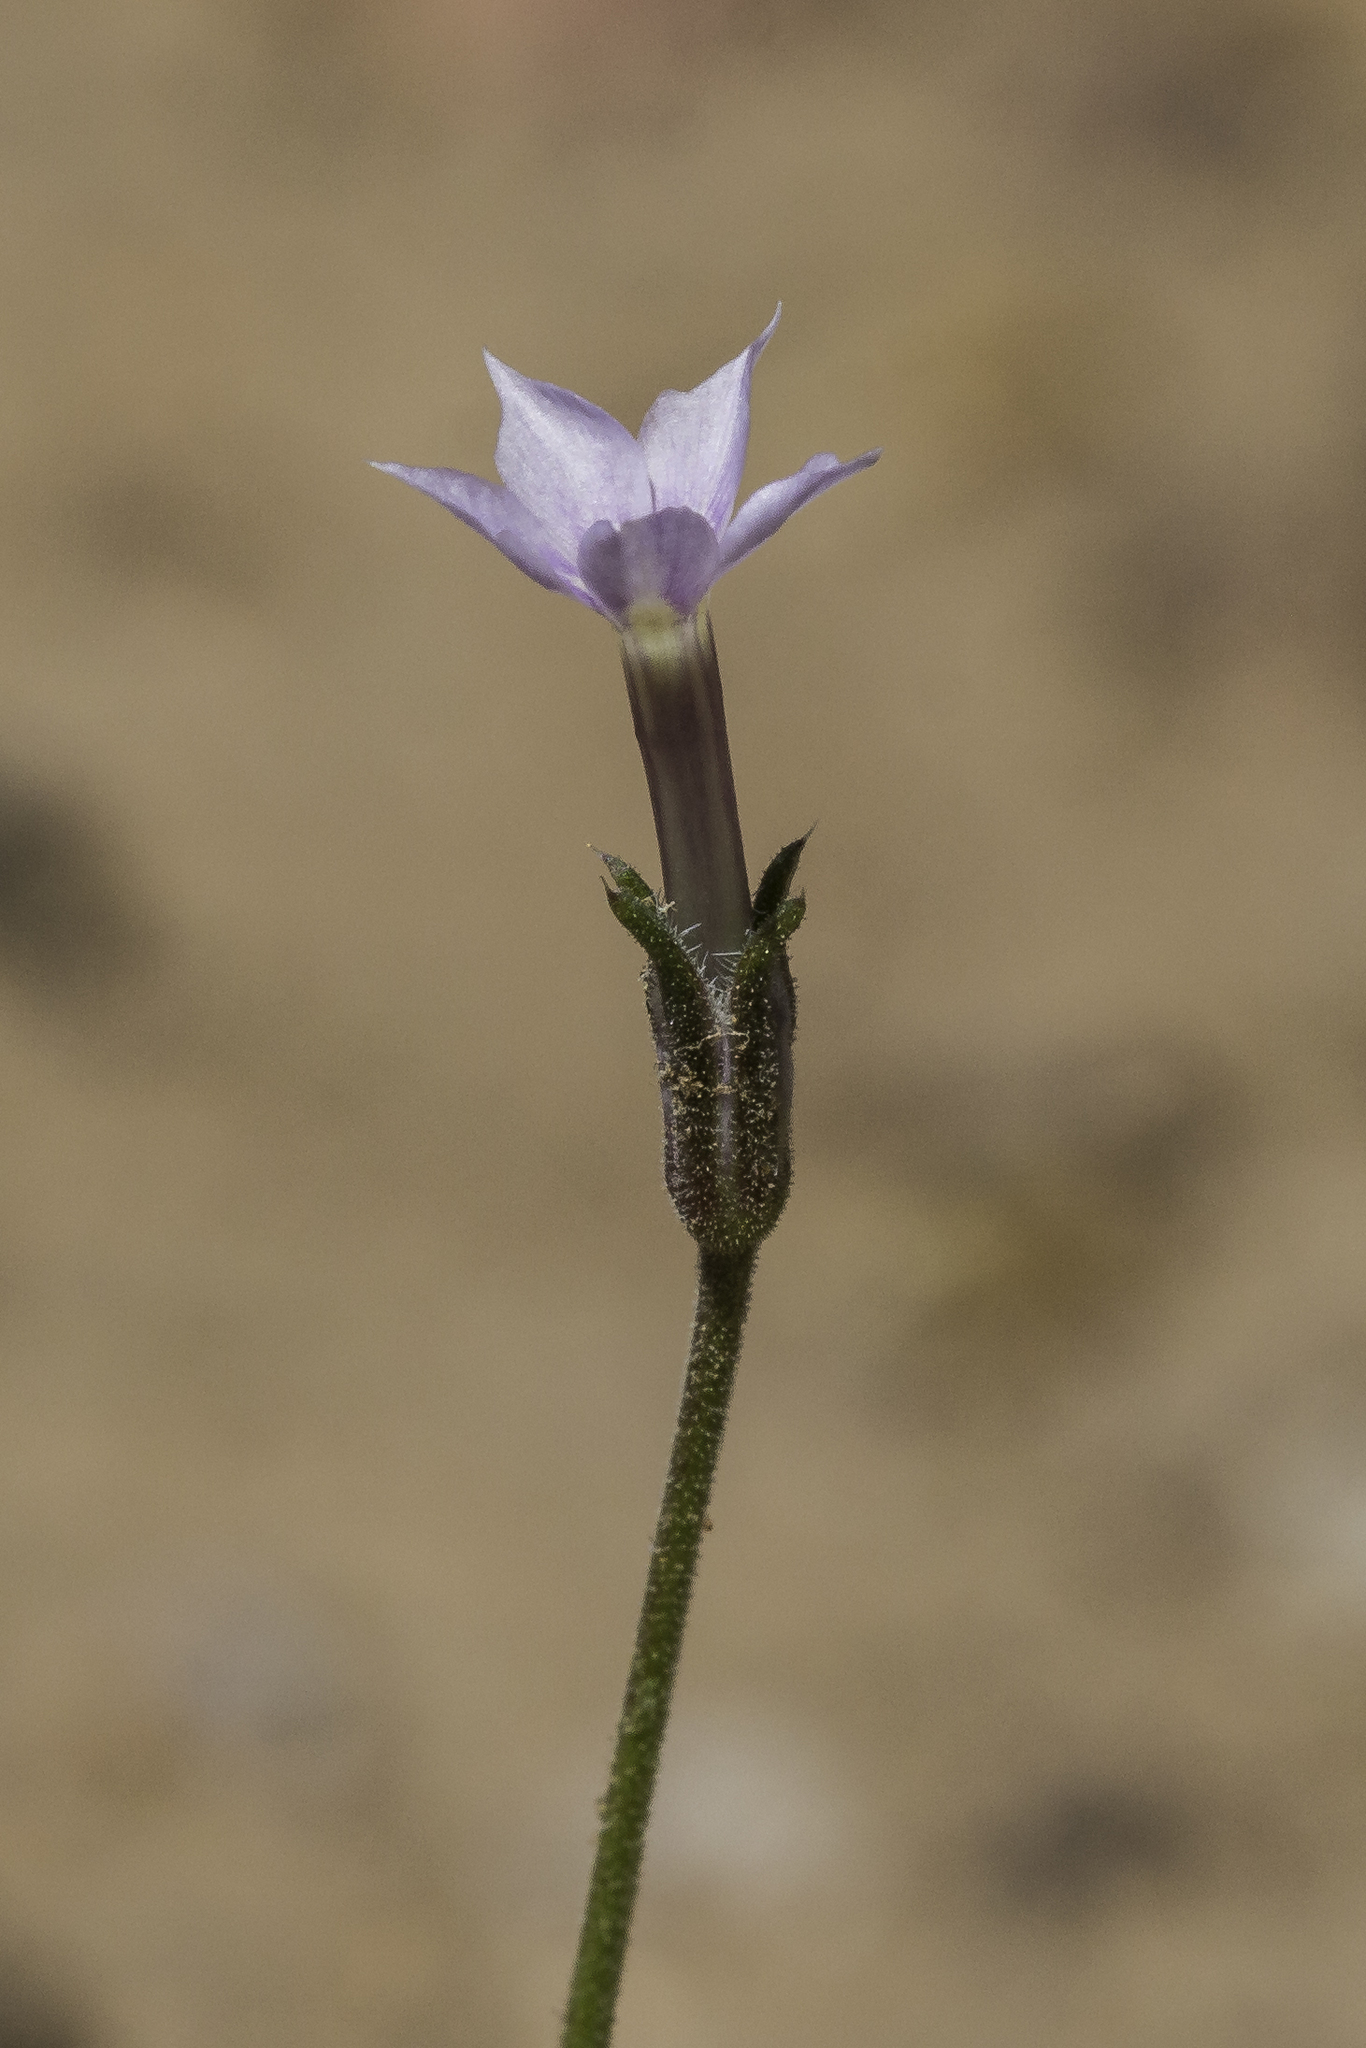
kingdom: Plantae
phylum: Tracheophyta
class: Magnoliopsida
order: Ericales
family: Polemoniaceae
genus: Ipomopsis
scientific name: Ipomopsis laxiflora
